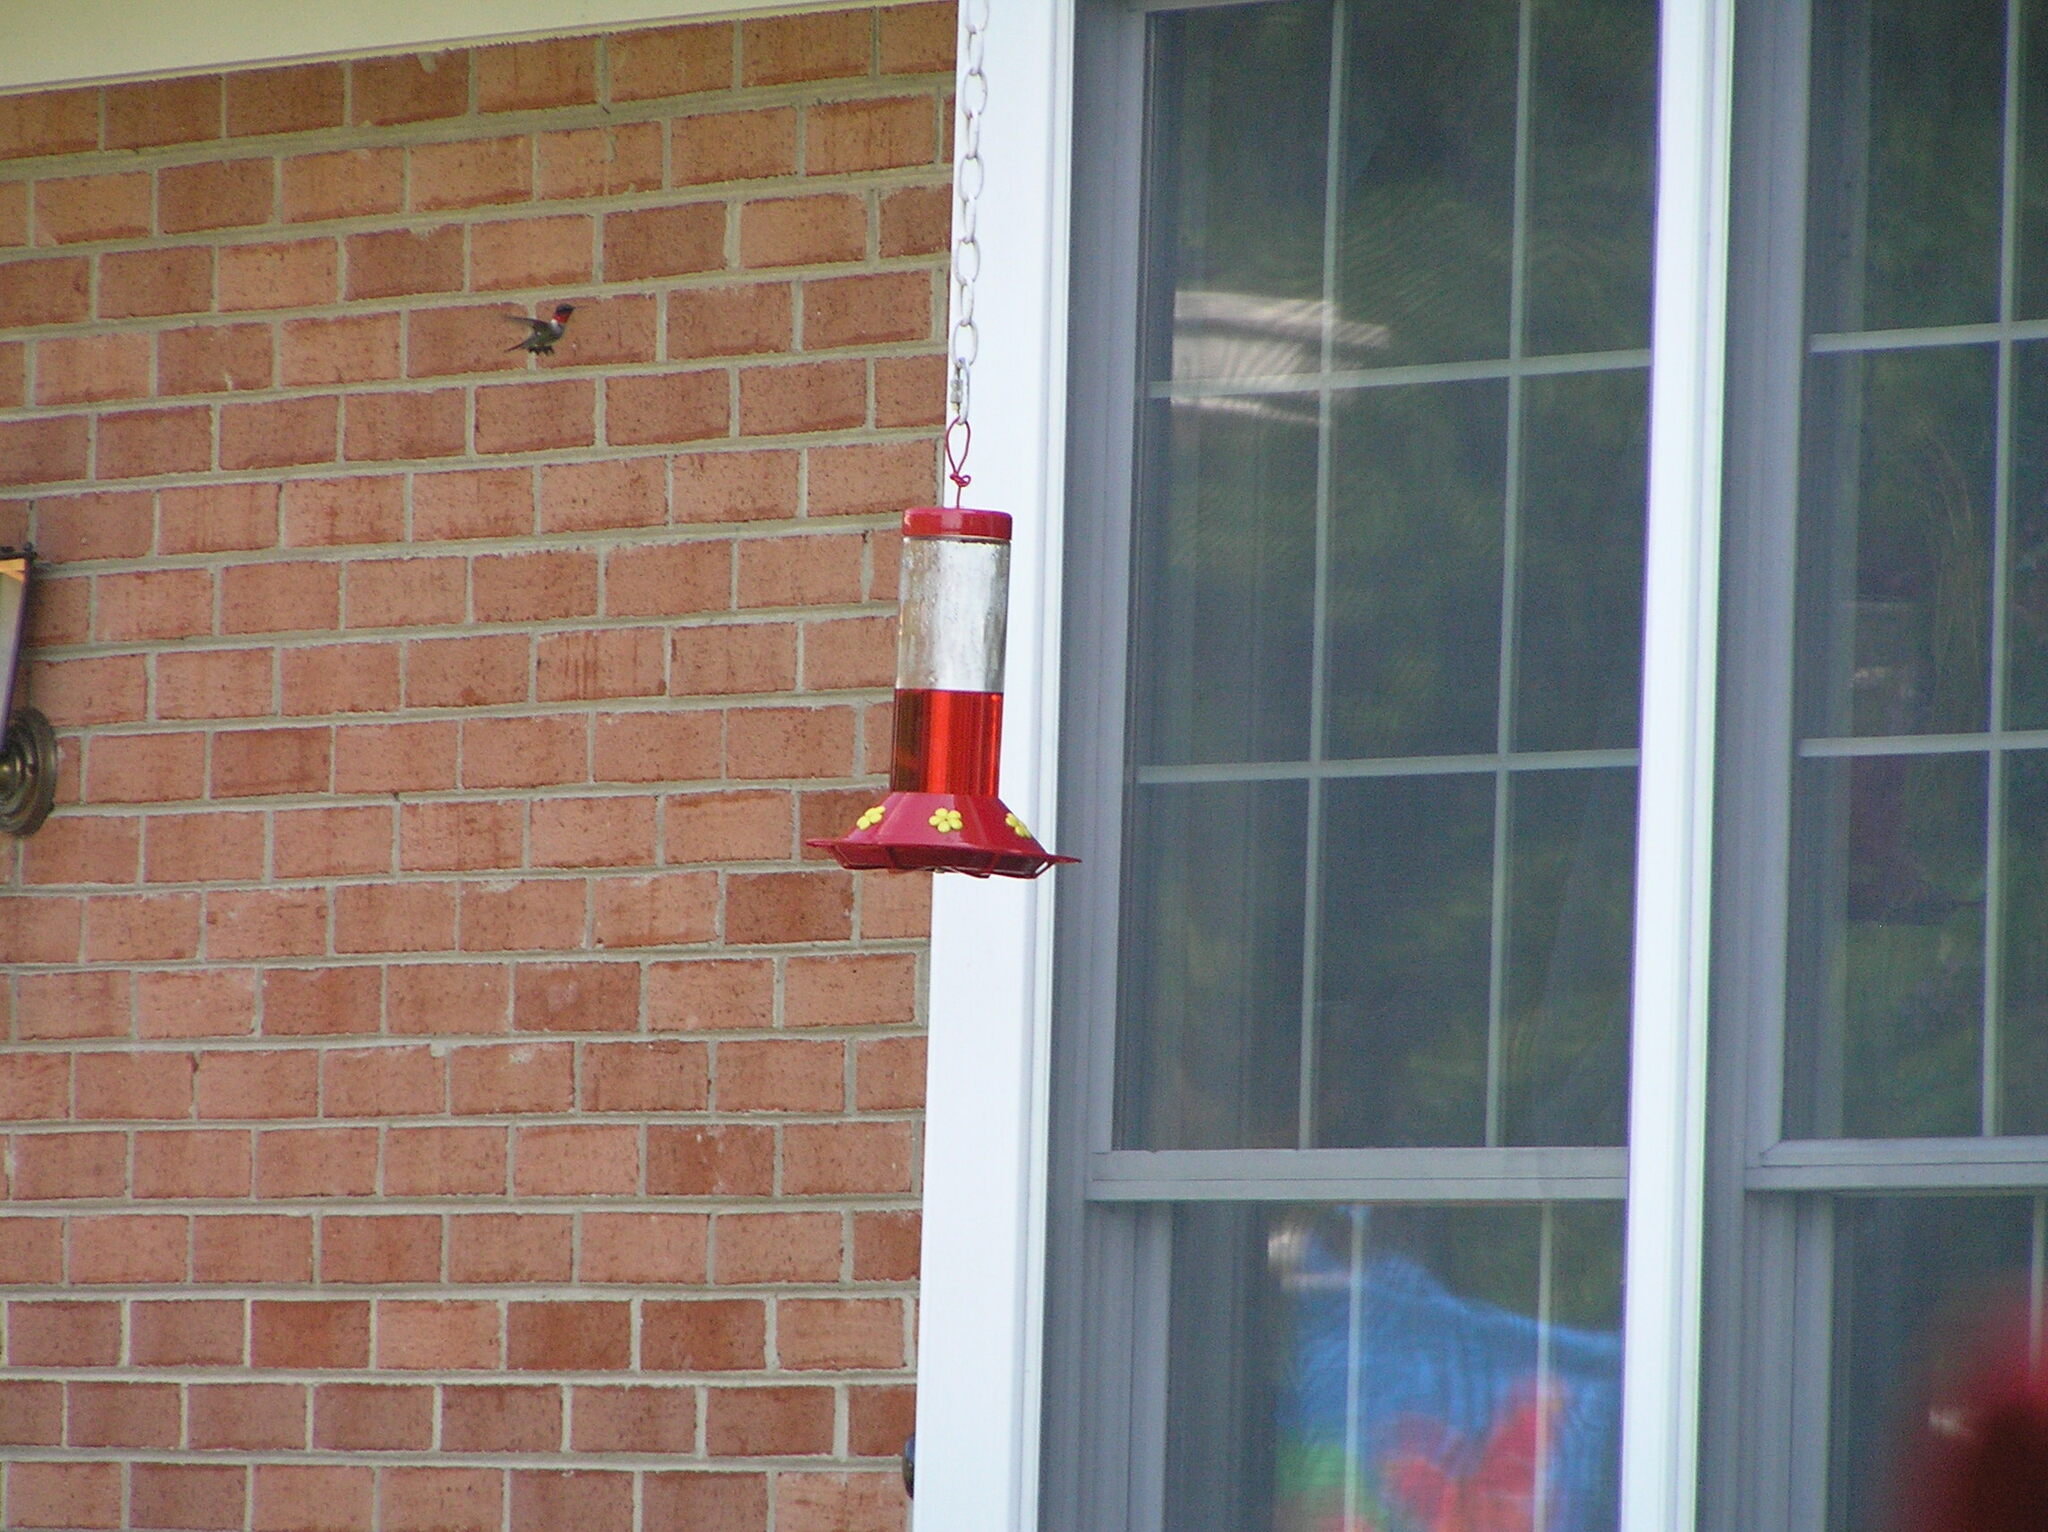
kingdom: Animalia
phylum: Chordata
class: Aves
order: Apodiformes
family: Trochilidae
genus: Archilochus
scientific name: Archilochus colubris
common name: Ruby-throated hummingbird
